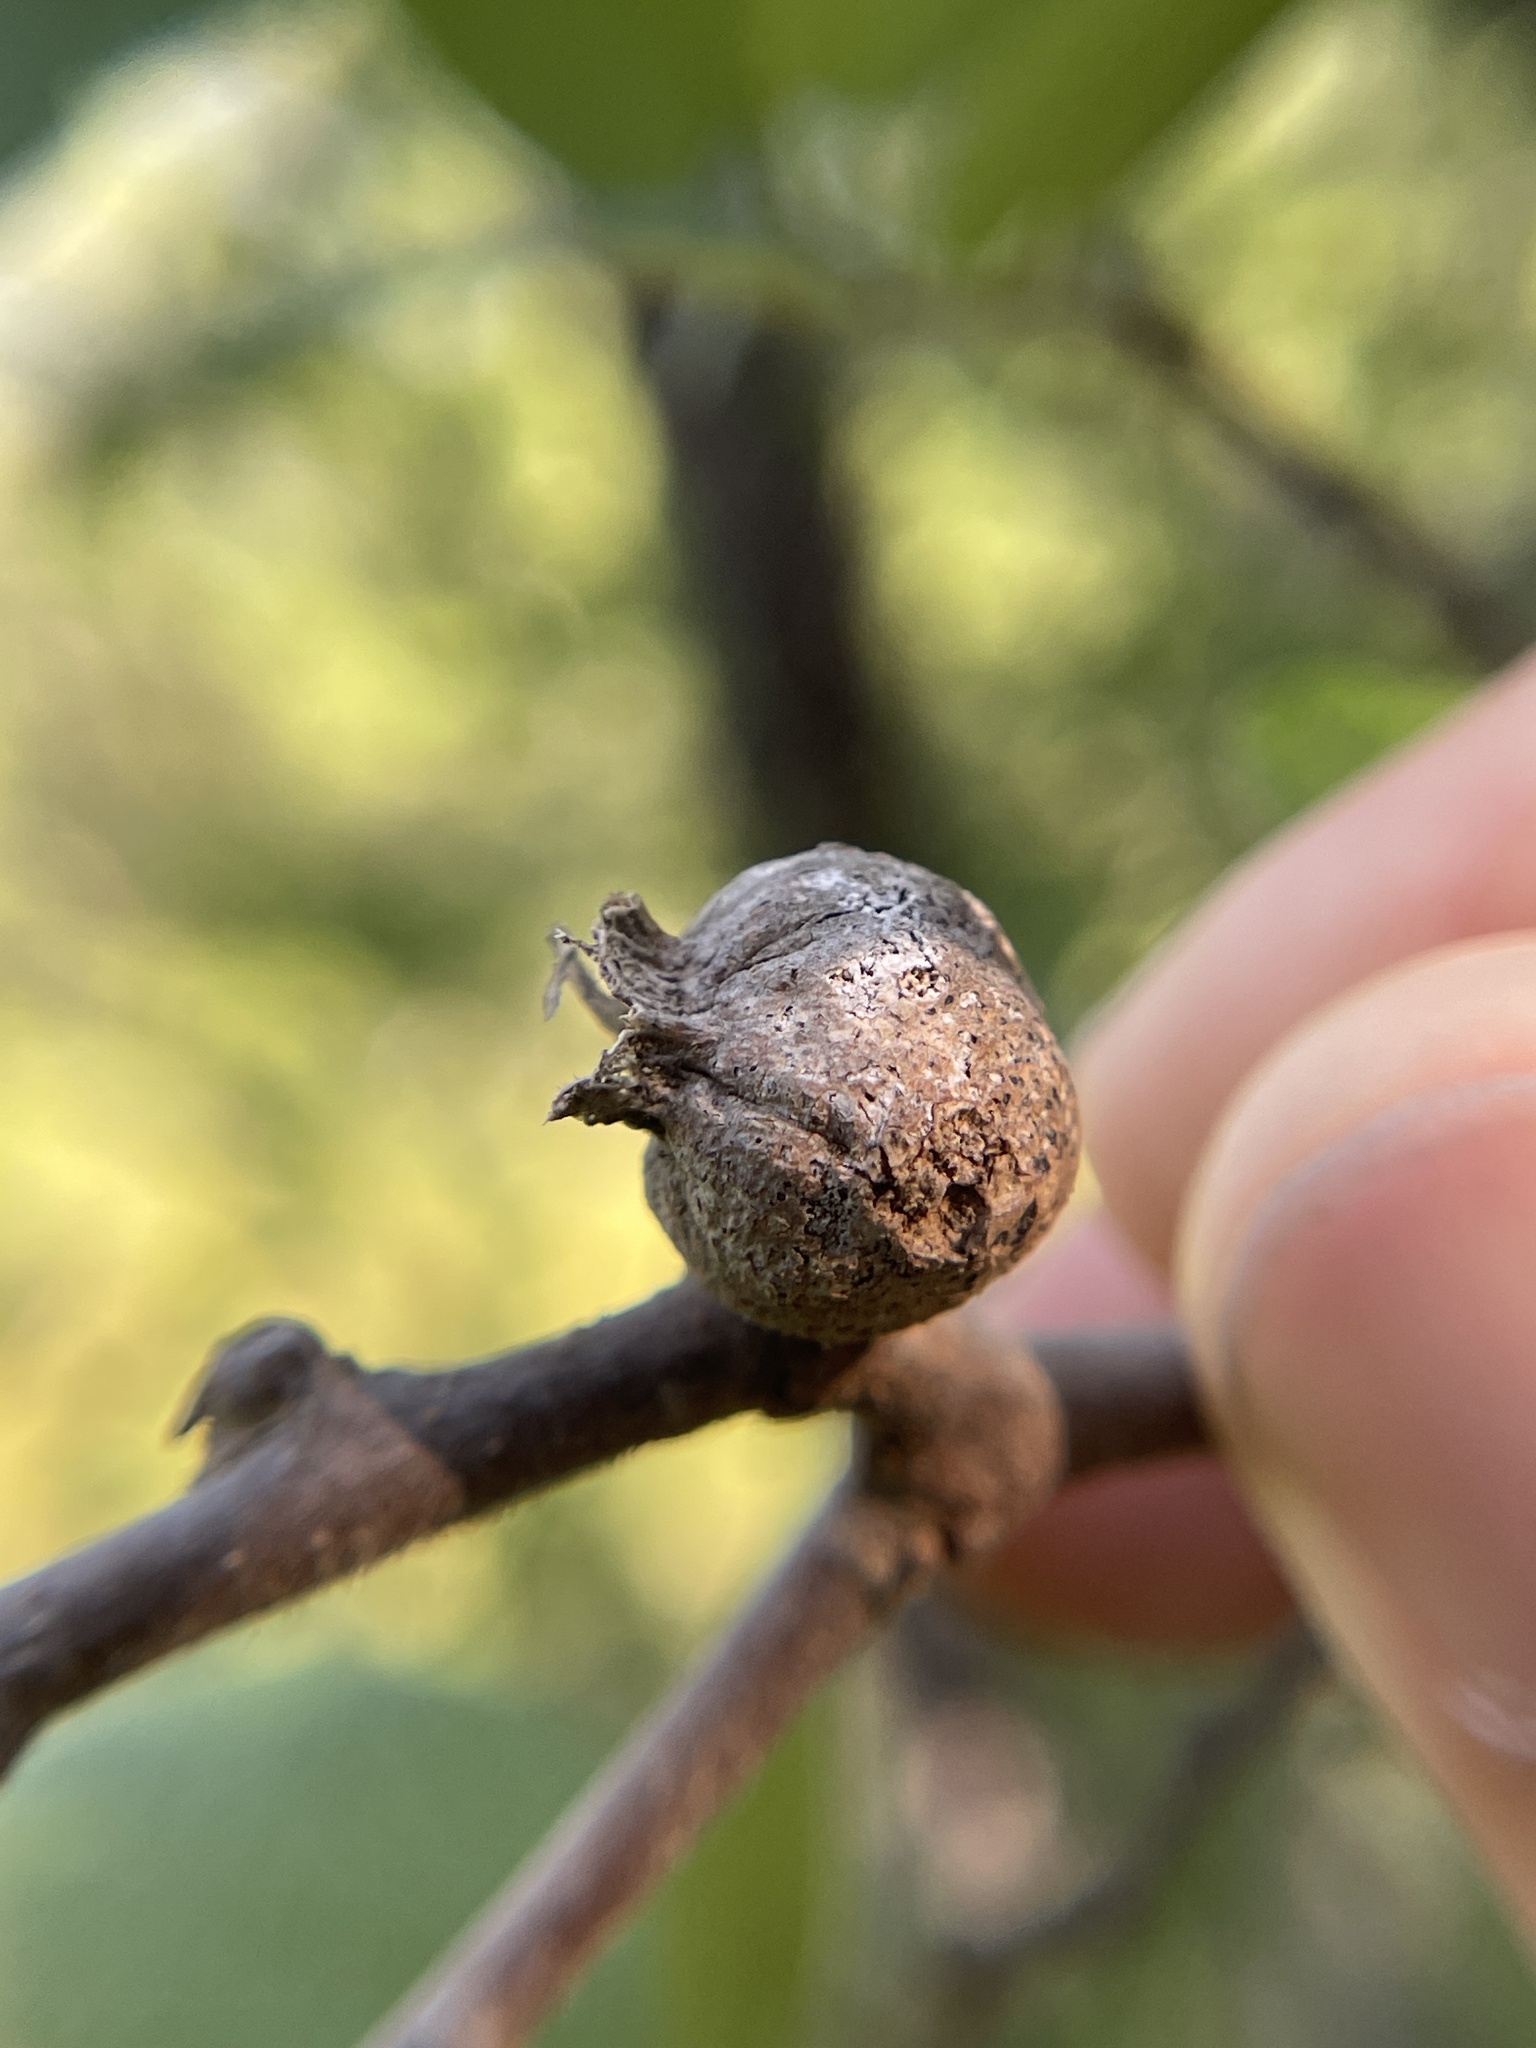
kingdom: Animalia
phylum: Arthropoda
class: Insecta
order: Hemiptera
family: Aphalaridae
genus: Pachypsylla
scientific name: Pachypsylla venusta
